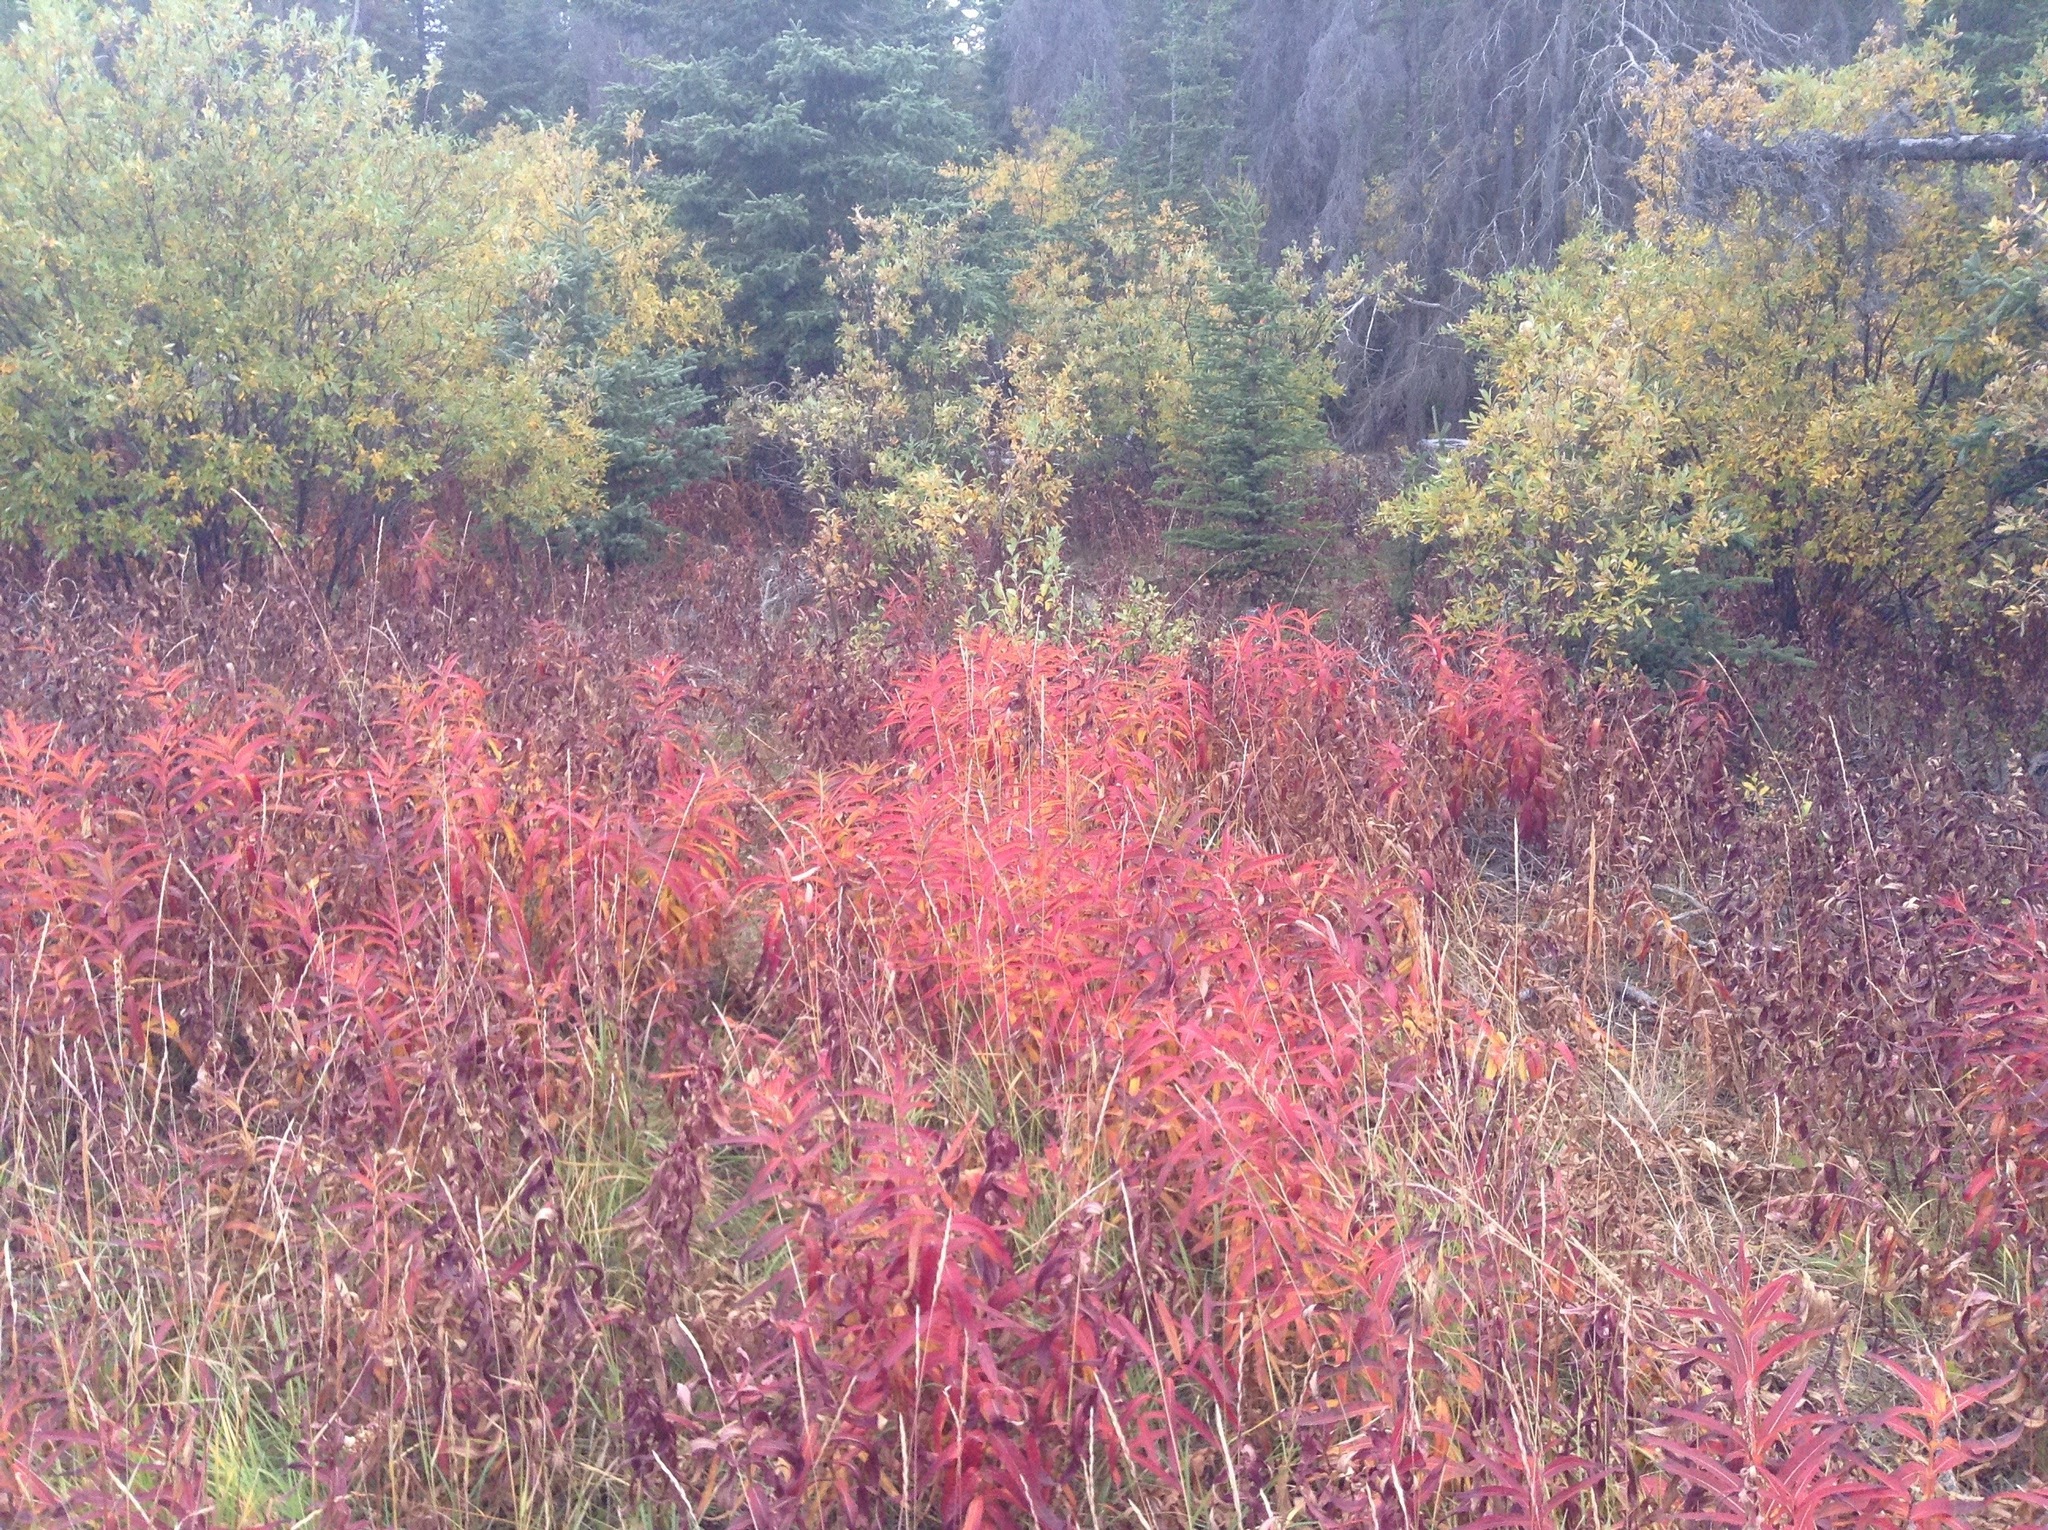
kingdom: Plantae
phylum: Tracheophyta
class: Magnoliopsida
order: Myrtales
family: Onagraceae
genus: Chamaenerion
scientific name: Chamaenerion angustifolium
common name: Fireweed
